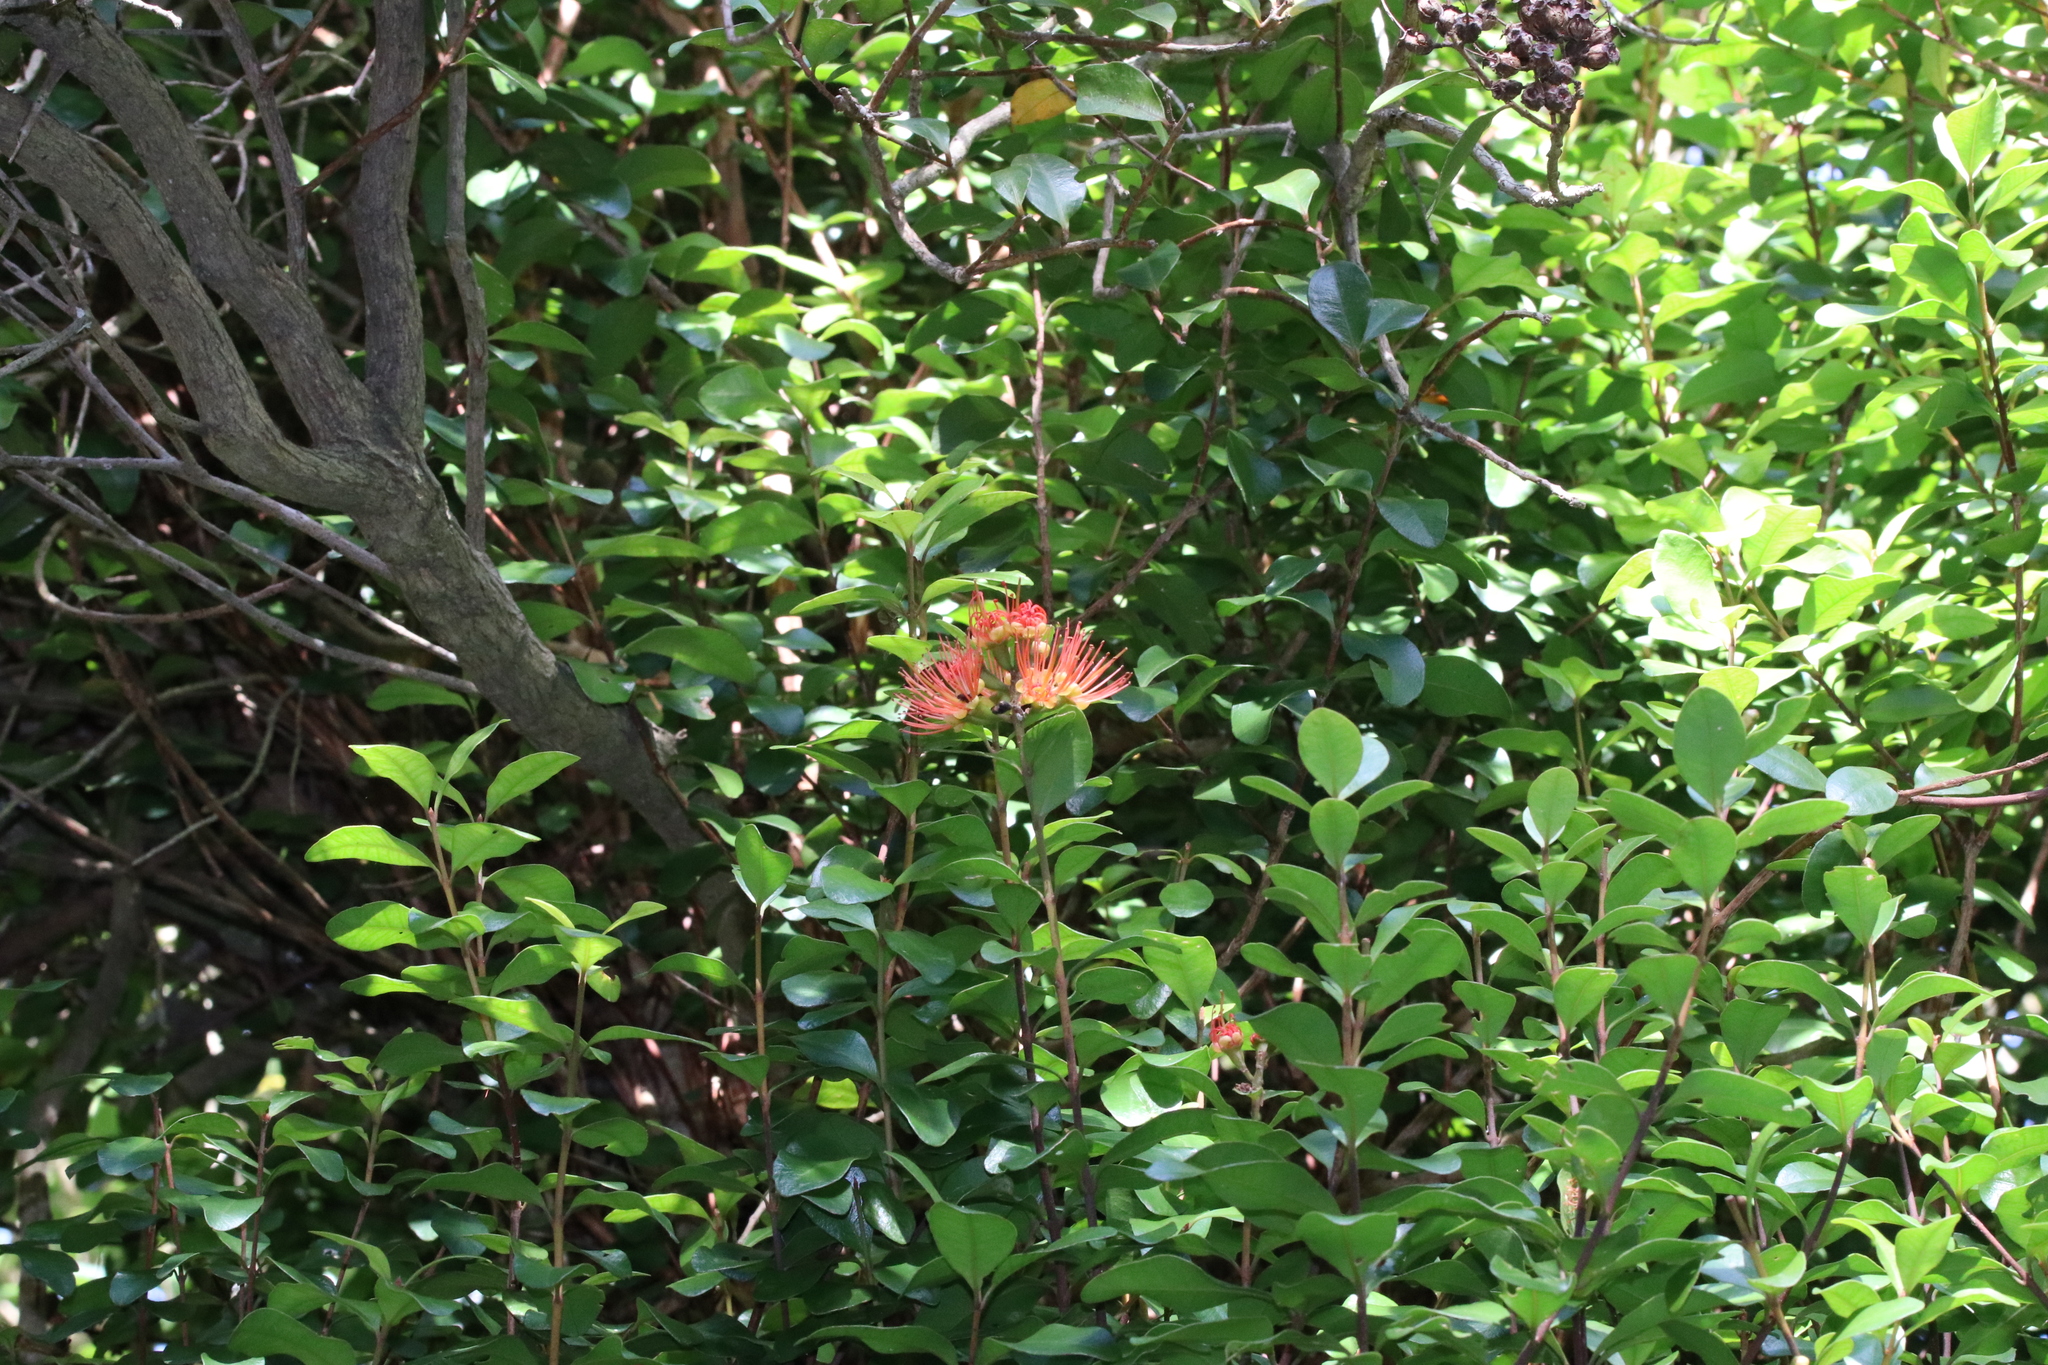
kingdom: Plantae
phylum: Tracheophyta
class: Magnoliopsida
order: Myrtales
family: Myrtaceae
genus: Metrosideros
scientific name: Metrosideros fulgens
